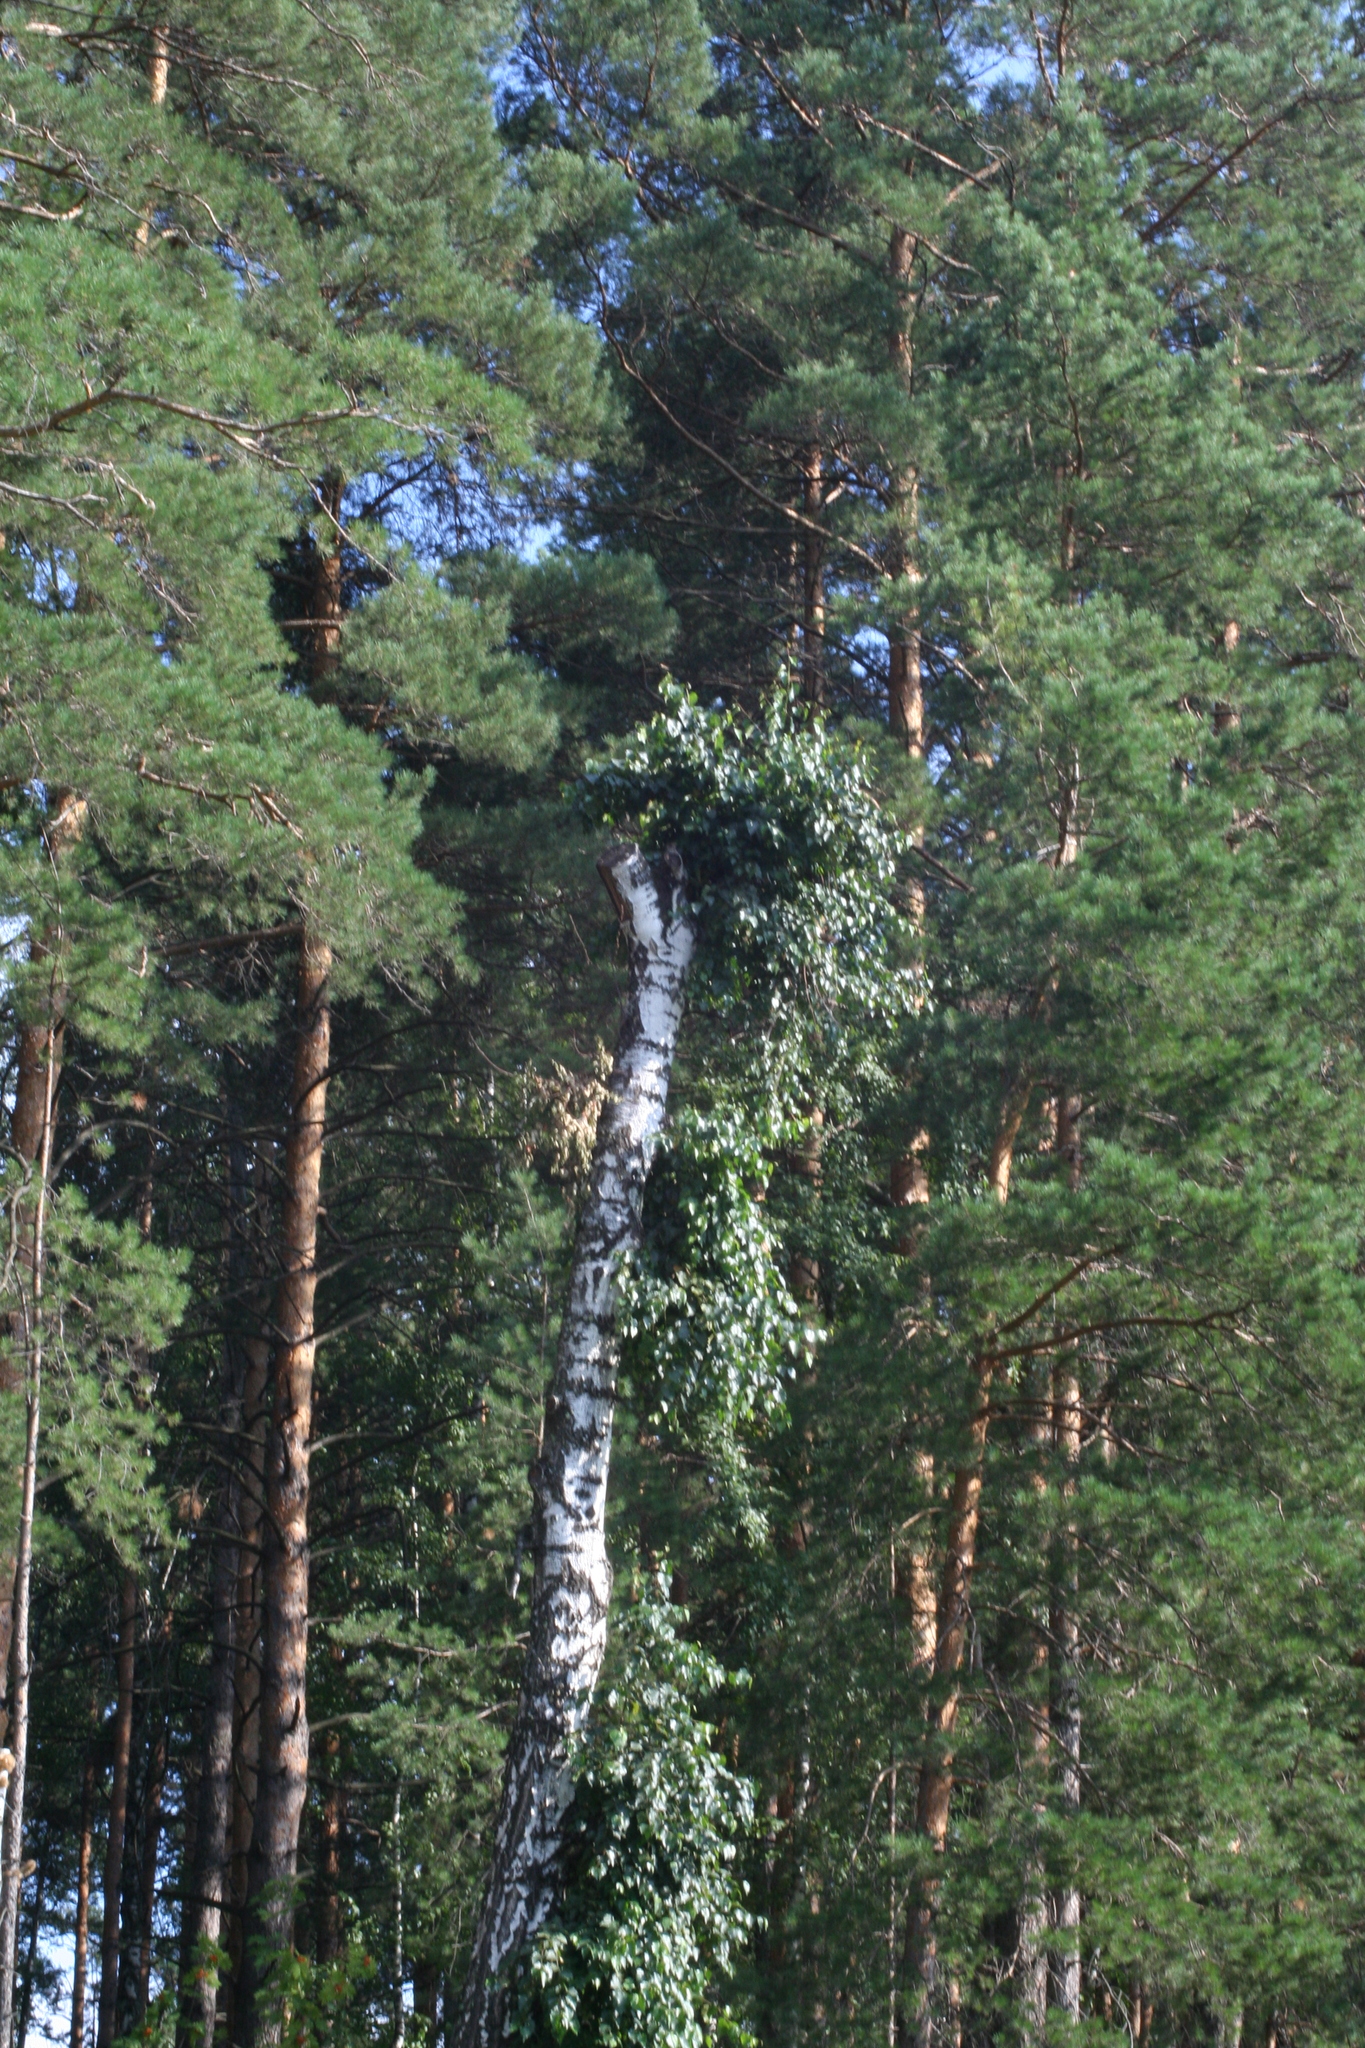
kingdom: Plantae
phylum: Tracheophyta
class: Pinopsida
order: Pinales
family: Pinaceae
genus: Pinus
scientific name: Pinus sylvestris
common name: Scots pine
